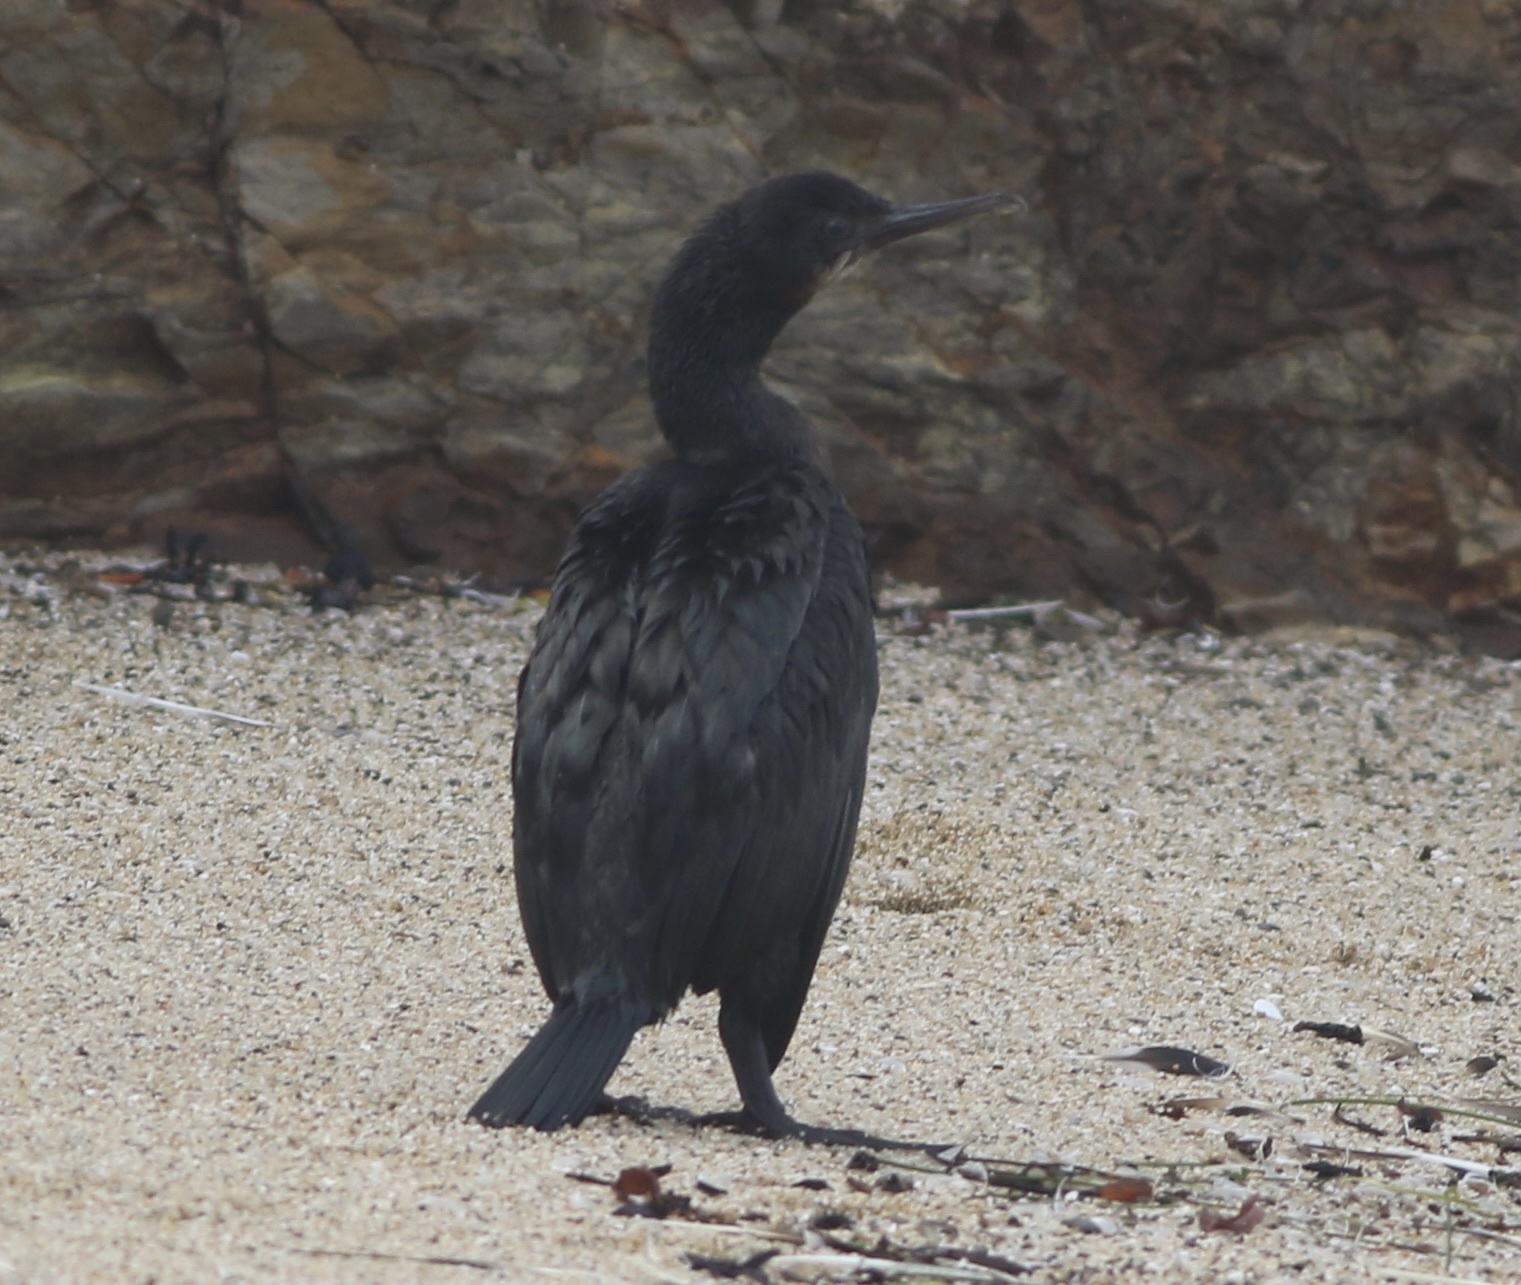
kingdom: Animalia
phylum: Chordata
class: Aves
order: Suliformes
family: Phalacrocoracidae
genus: Urile
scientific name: Urile penicillatus
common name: Brandt's cormorant
